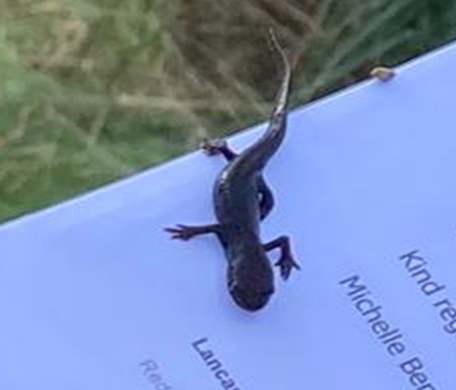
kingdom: Animalia
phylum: Chordata
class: Amphibia
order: Caudata
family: Salamandridae
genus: Lissotriton
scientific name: Lissotriton vulgaris
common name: Smooth newt
